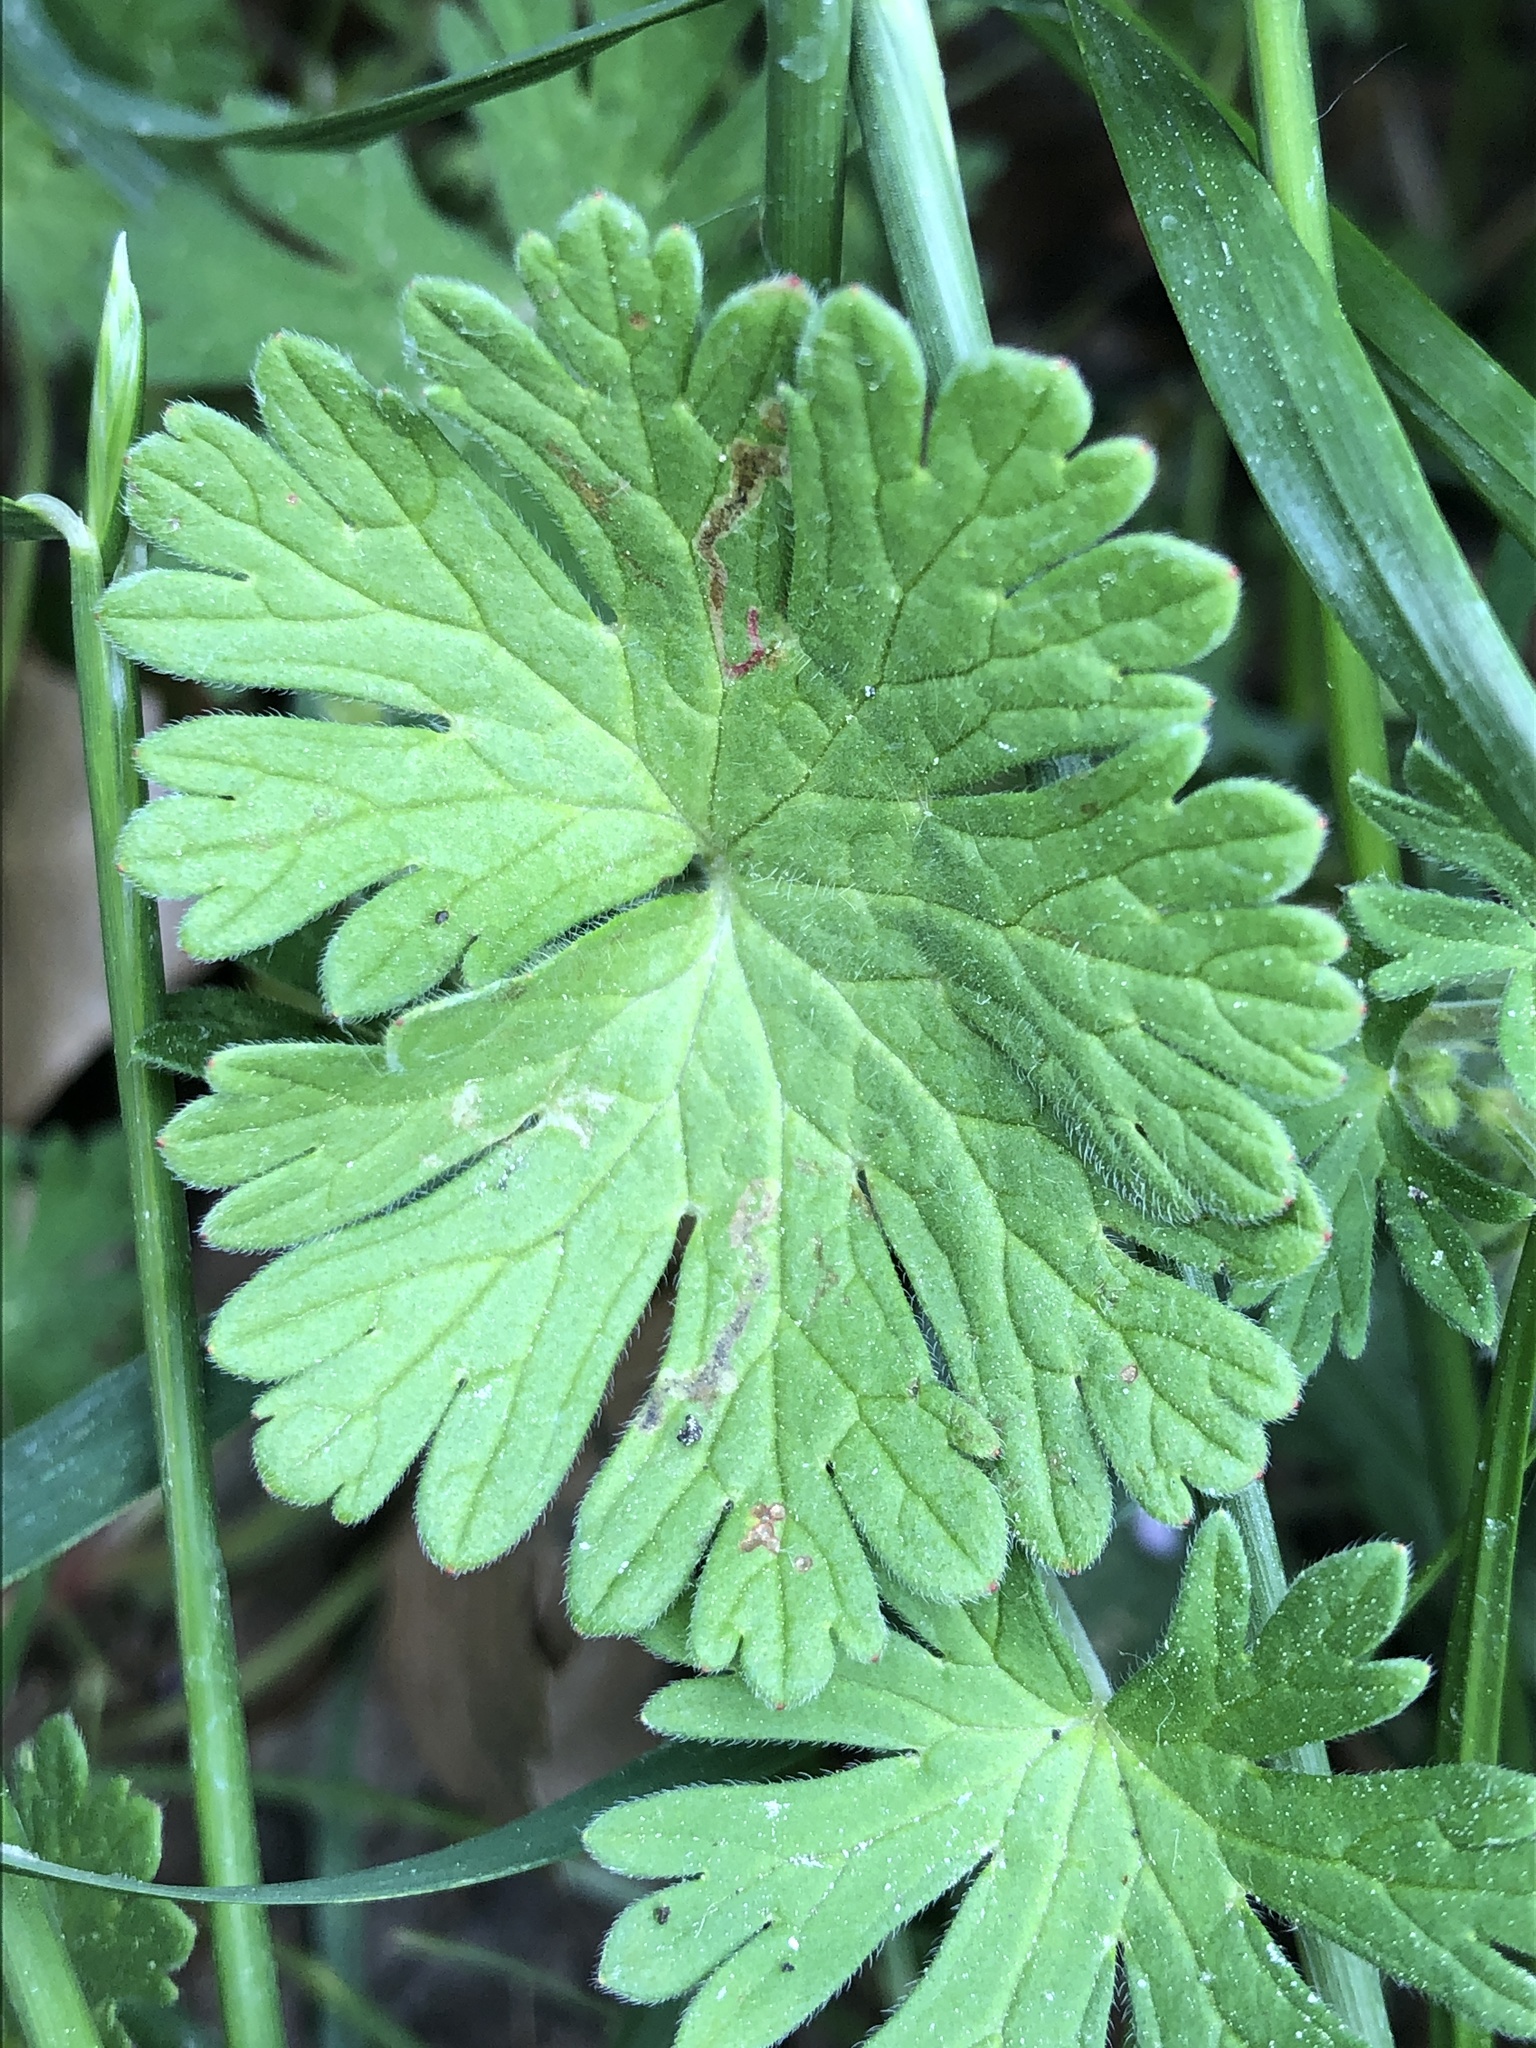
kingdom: Animalia
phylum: Arthropoda
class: Insecta
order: Diptera
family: Agromyzidae
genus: Agromyza
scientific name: Agromyza nigrescens
